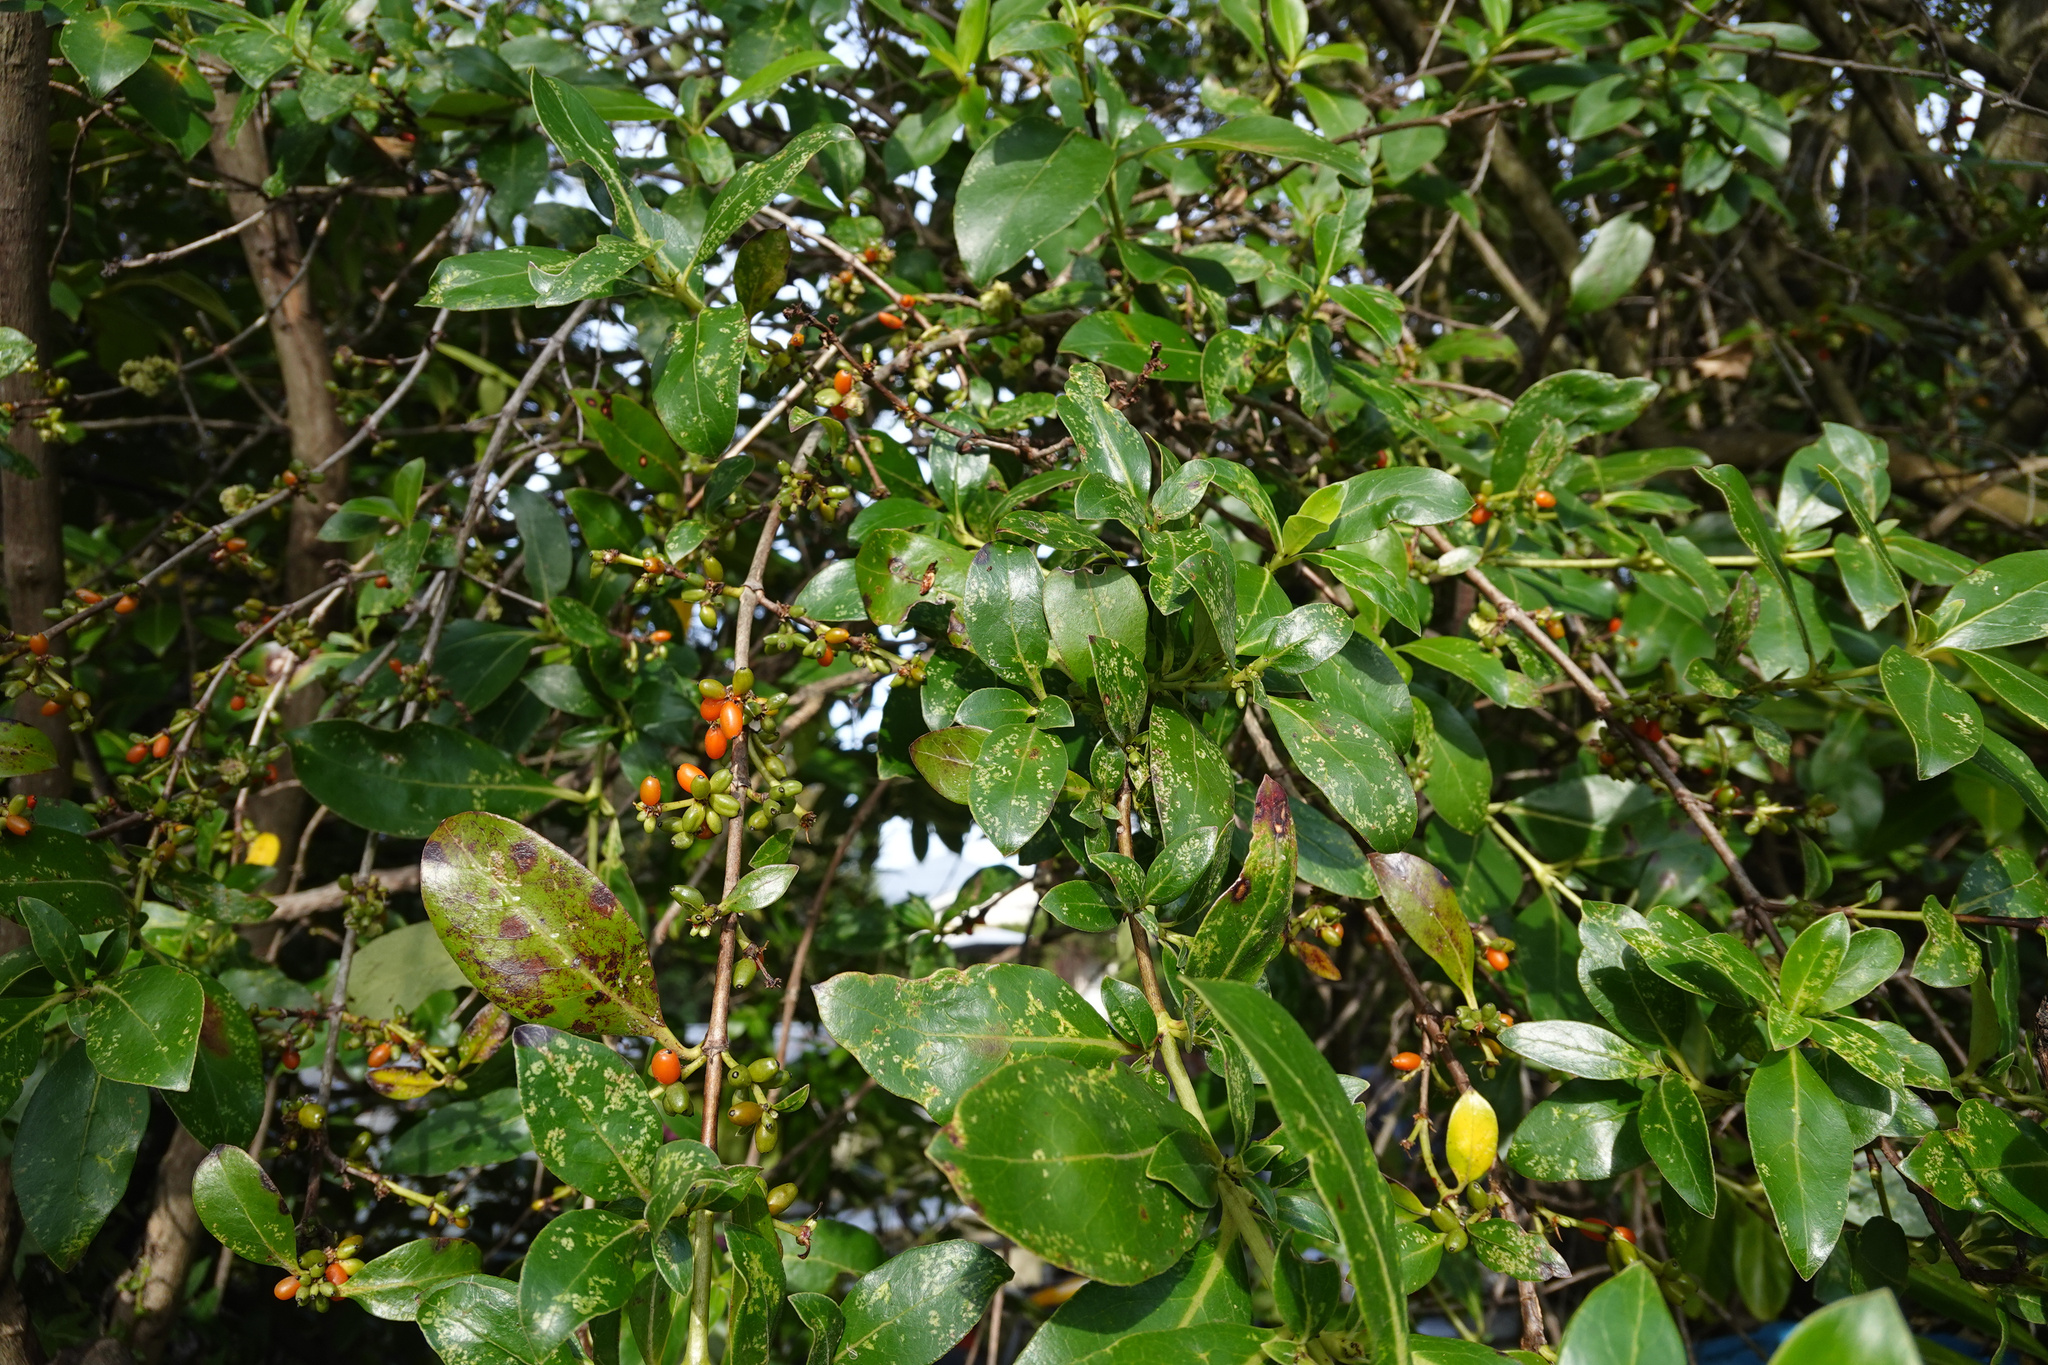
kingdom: Plantae
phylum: Tracheophyta
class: Magnoliopsida
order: Gentianales
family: Rubiaceae
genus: Coprosma
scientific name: Coprosma robusta
